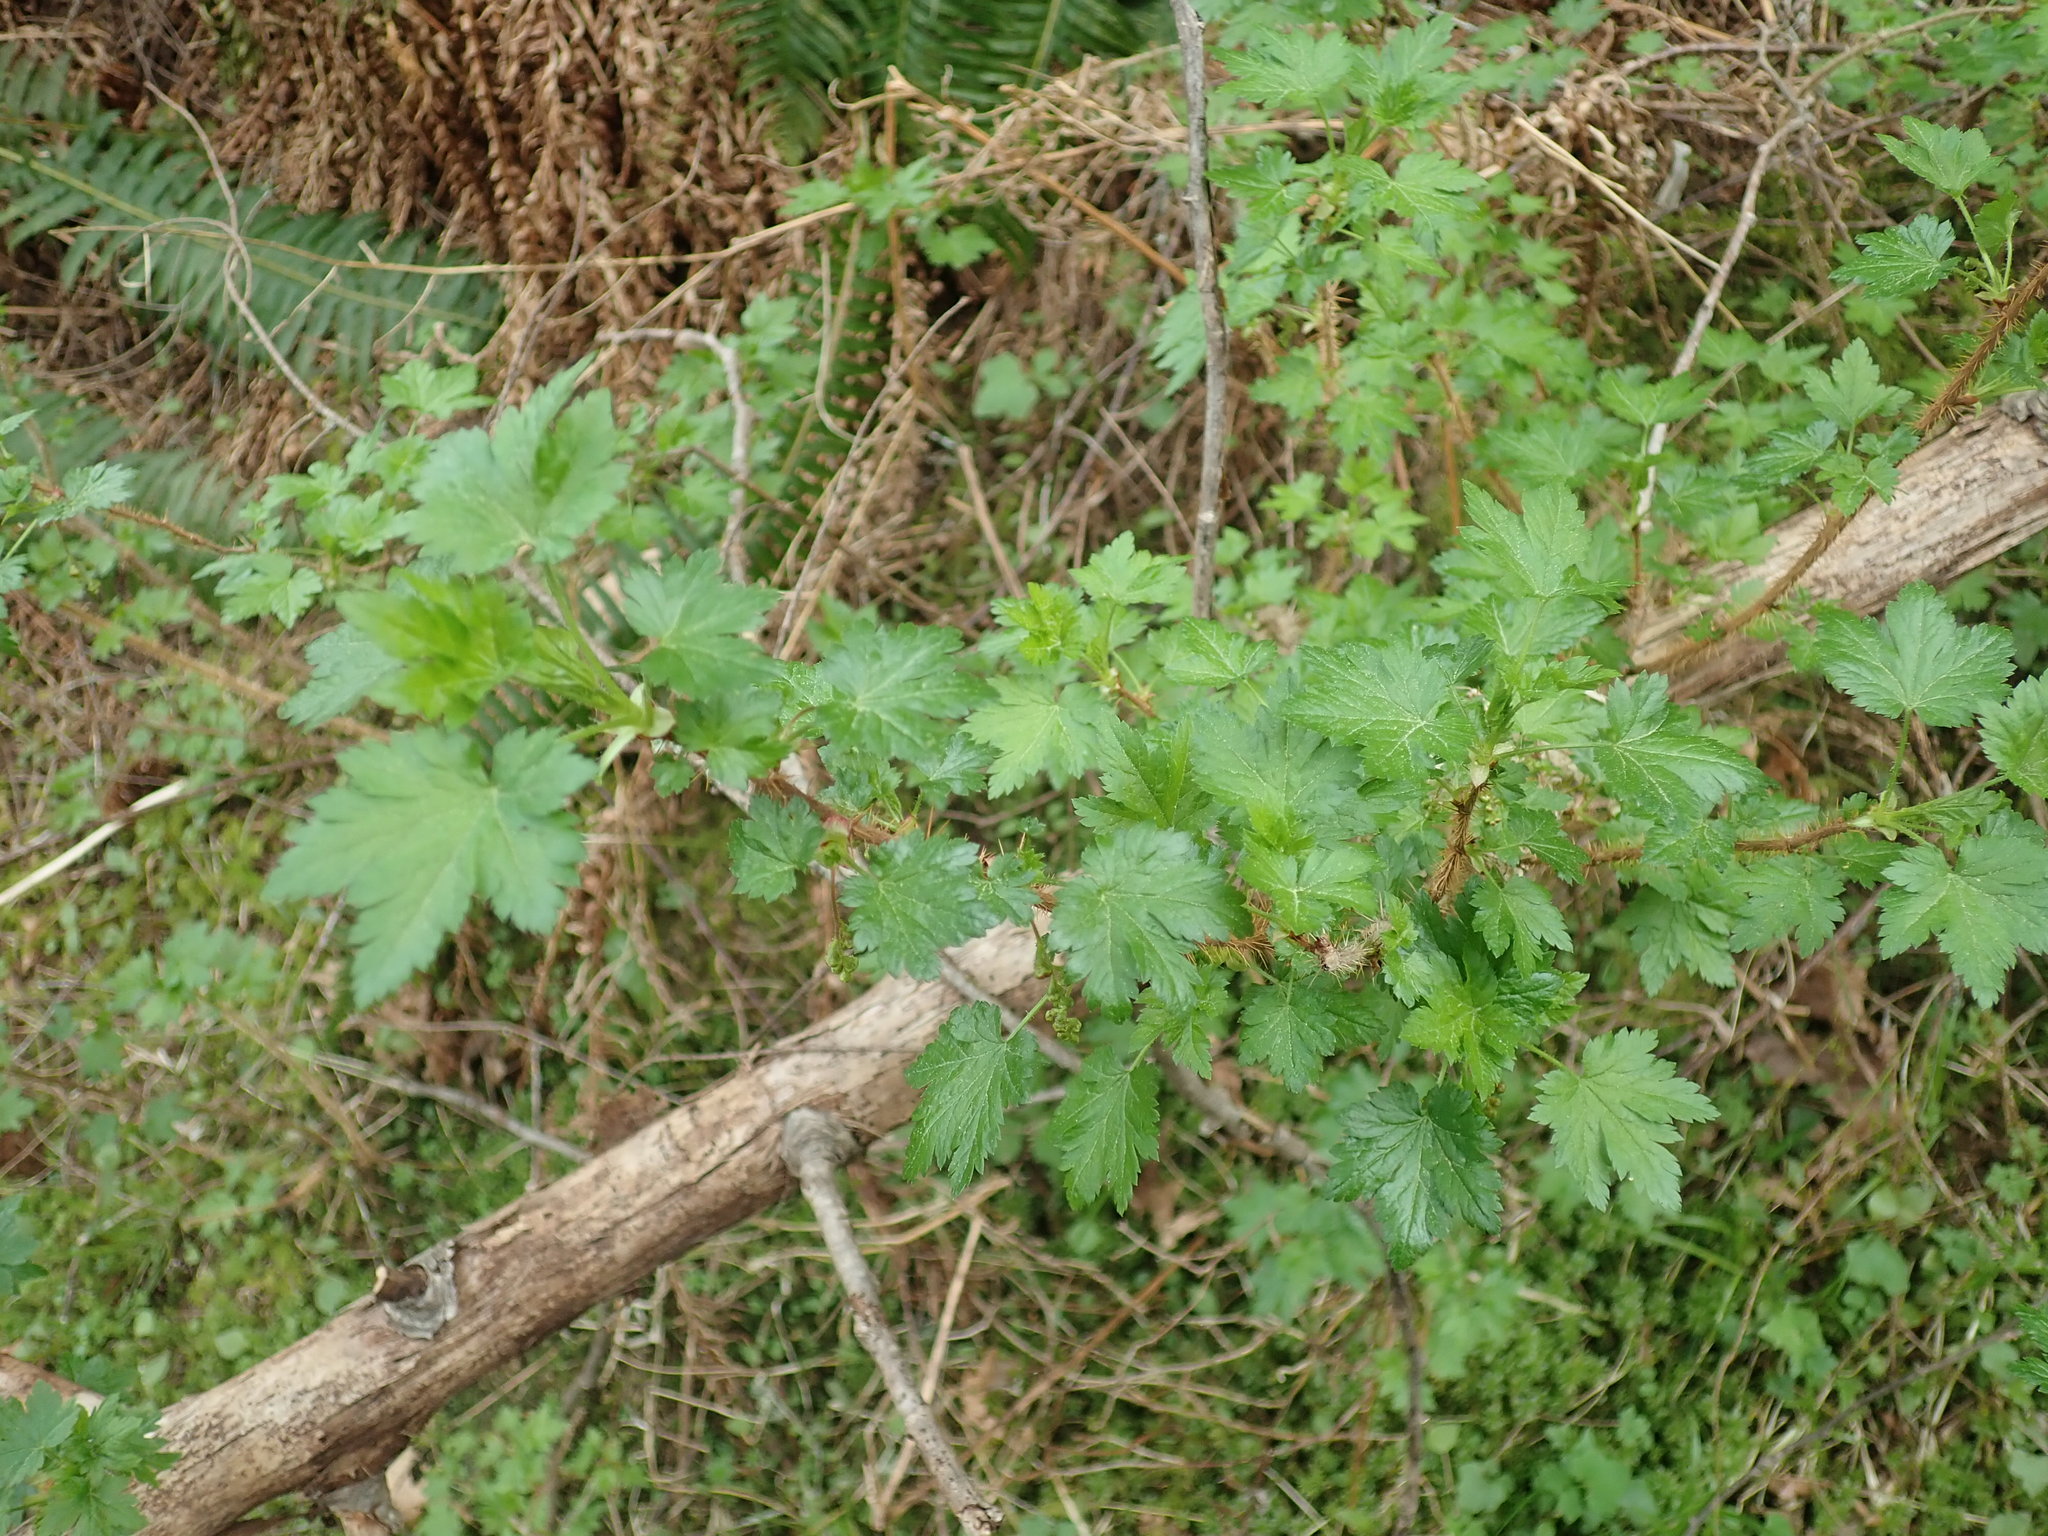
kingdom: Plantae
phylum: Tracheophyta
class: Magnoliopsida
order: Saxifragales
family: Grossulariaceae
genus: Ribes
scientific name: Ribes lacustre
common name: Black gooseberry
